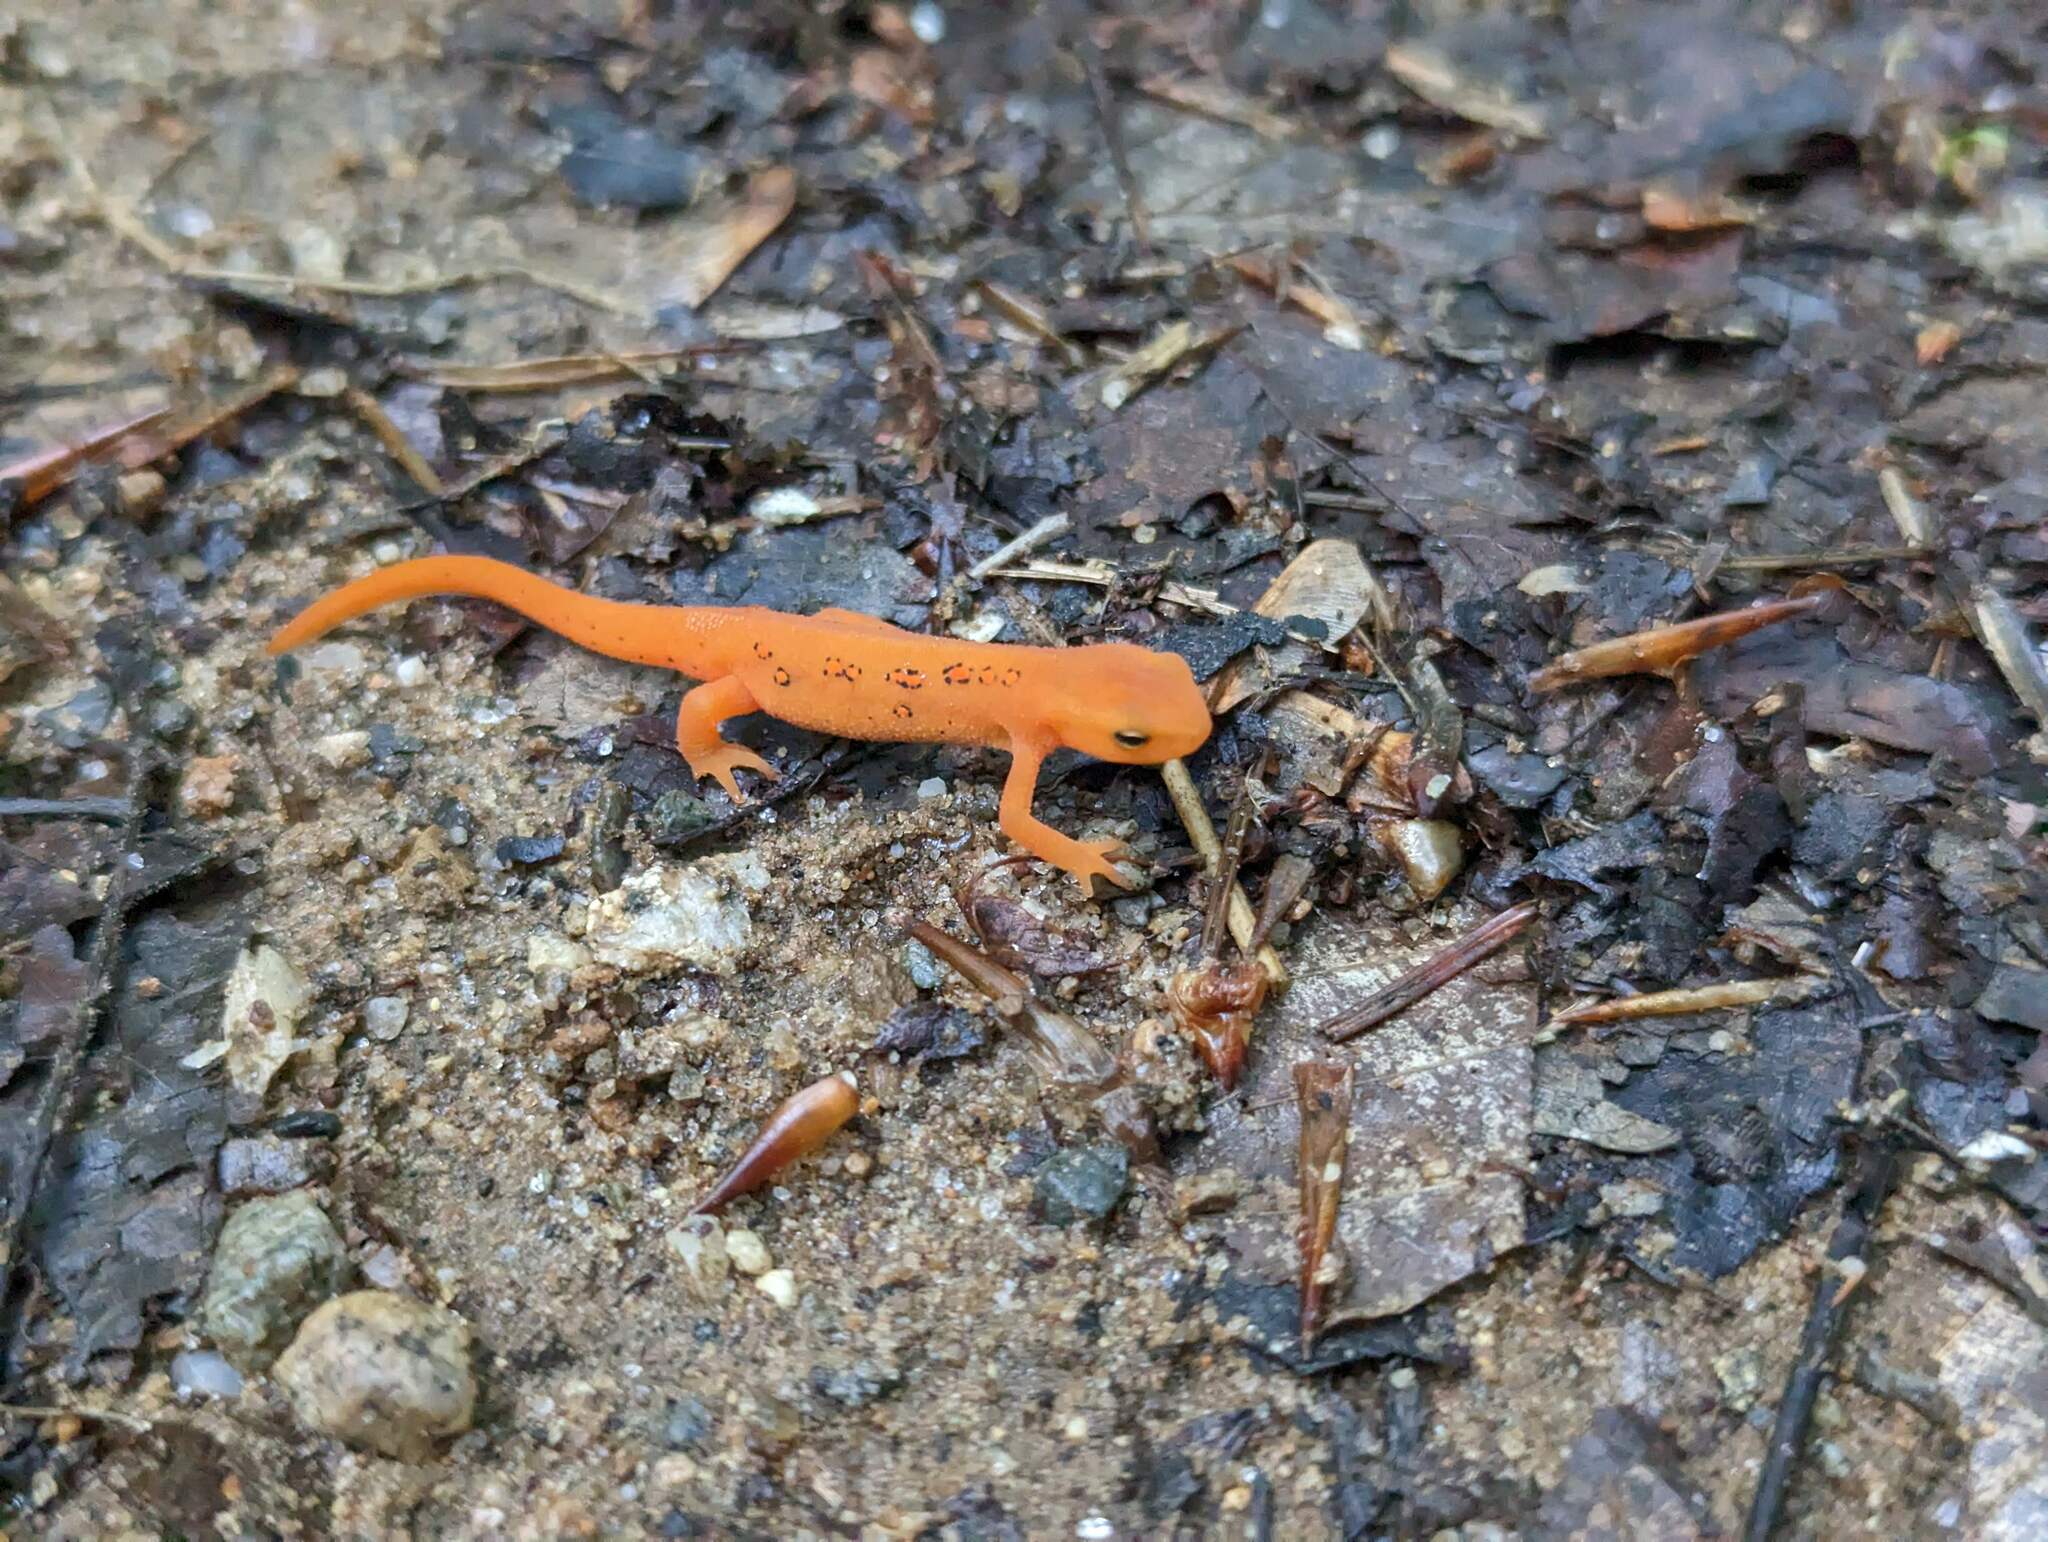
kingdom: Animalia
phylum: Chordata
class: Amphibia
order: Caudata
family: Salamandridae
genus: Notophthalmus
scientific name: Notophthalmus viridescens
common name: Eastern newt
